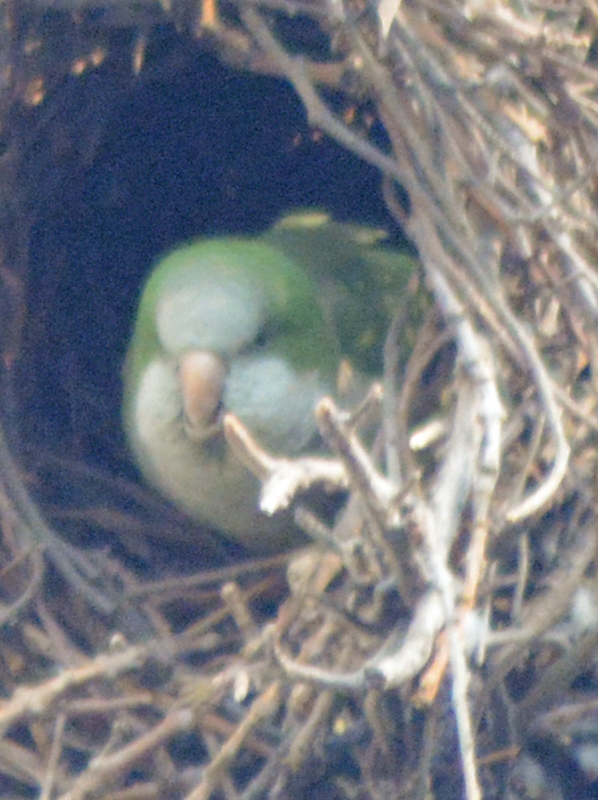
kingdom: Animalia
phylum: Chordata
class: Aves
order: Psittaciformes
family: Psittacidae
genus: Myiopsitta
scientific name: Myiopsitta monachus
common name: Monk parakeet
